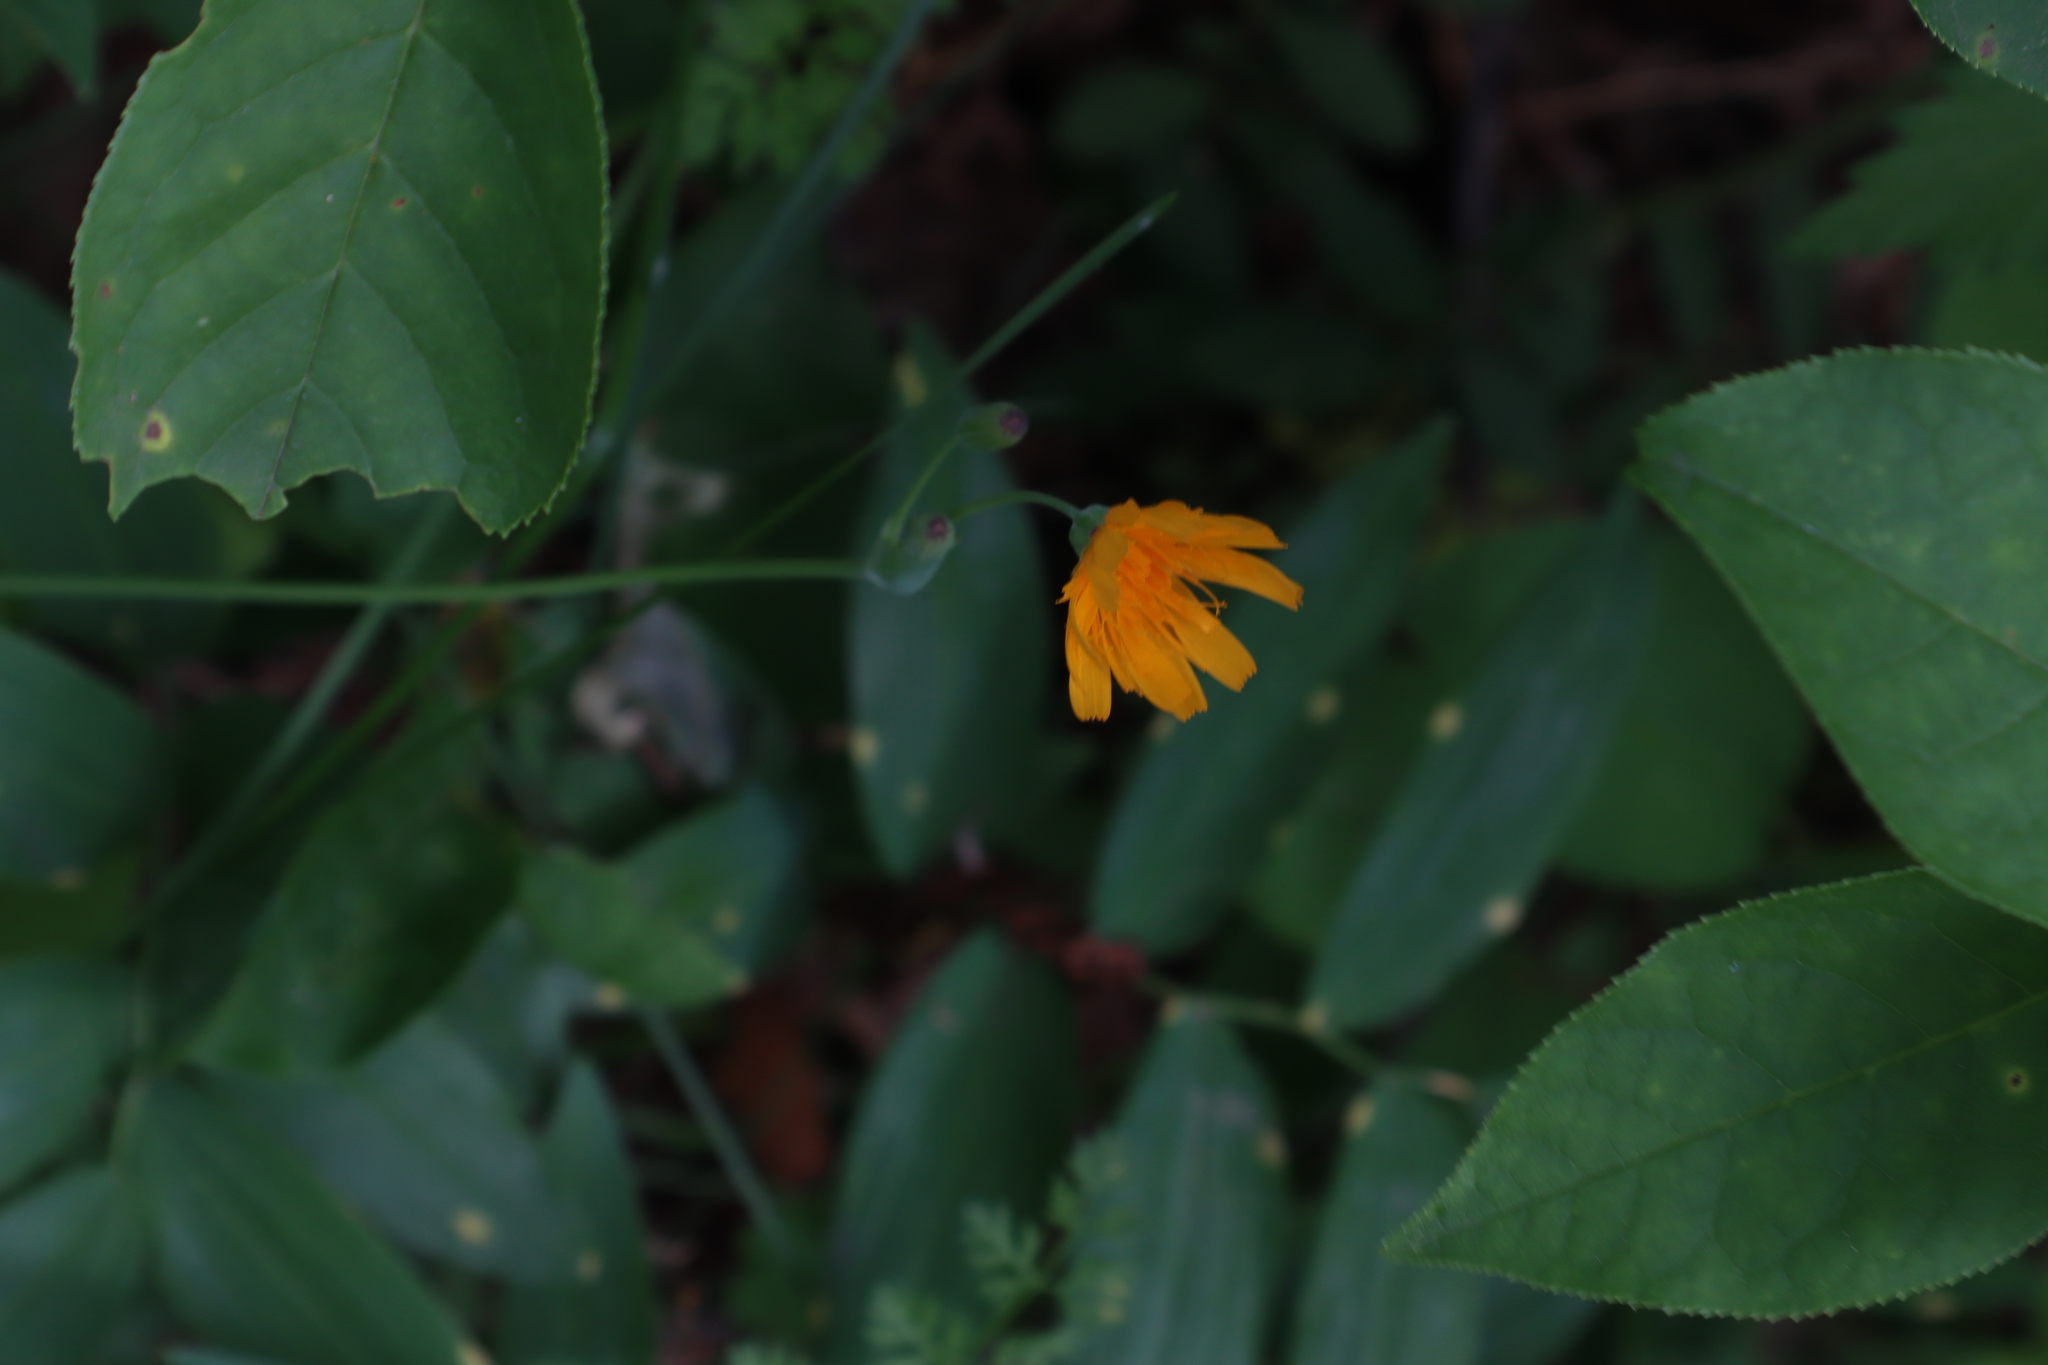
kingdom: Plantae
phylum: Tracheophyta
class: Magnoliopsida
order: Asterales
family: Asteraceae
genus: Krigia
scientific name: Krigia biflora
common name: Orange dwarf-dandelion
